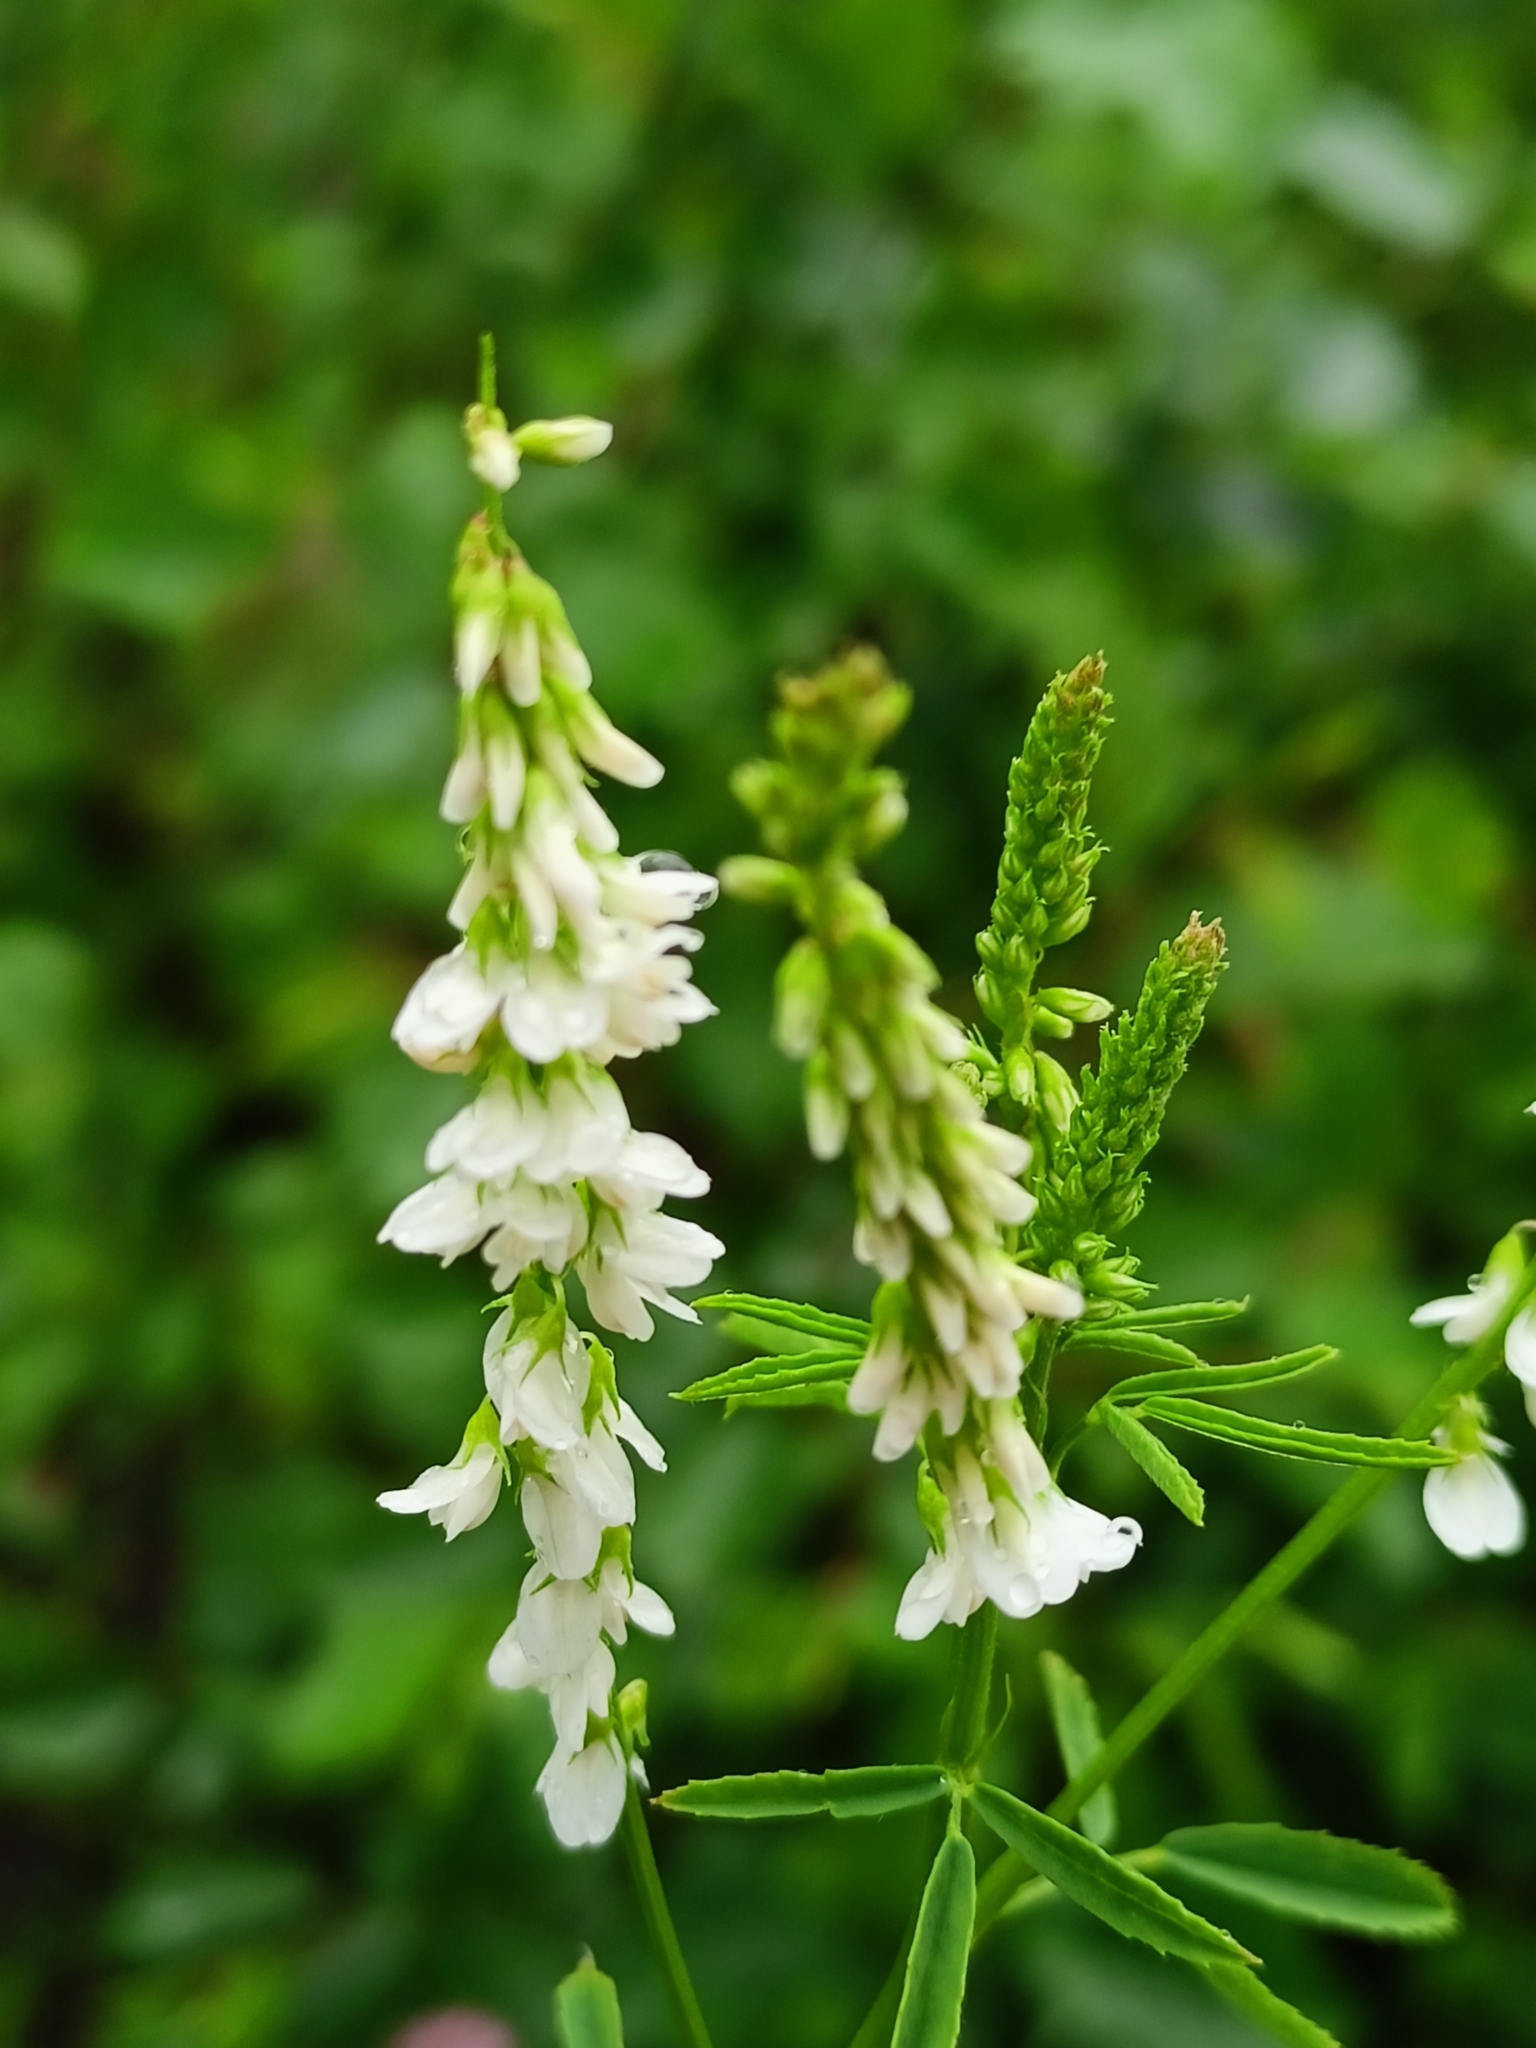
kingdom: Plantae
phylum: Tracheophyta
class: Magnoliopsida
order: Fabales
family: Fabaceae
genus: Melilotus
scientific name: Melilotus albus
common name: White melilot
